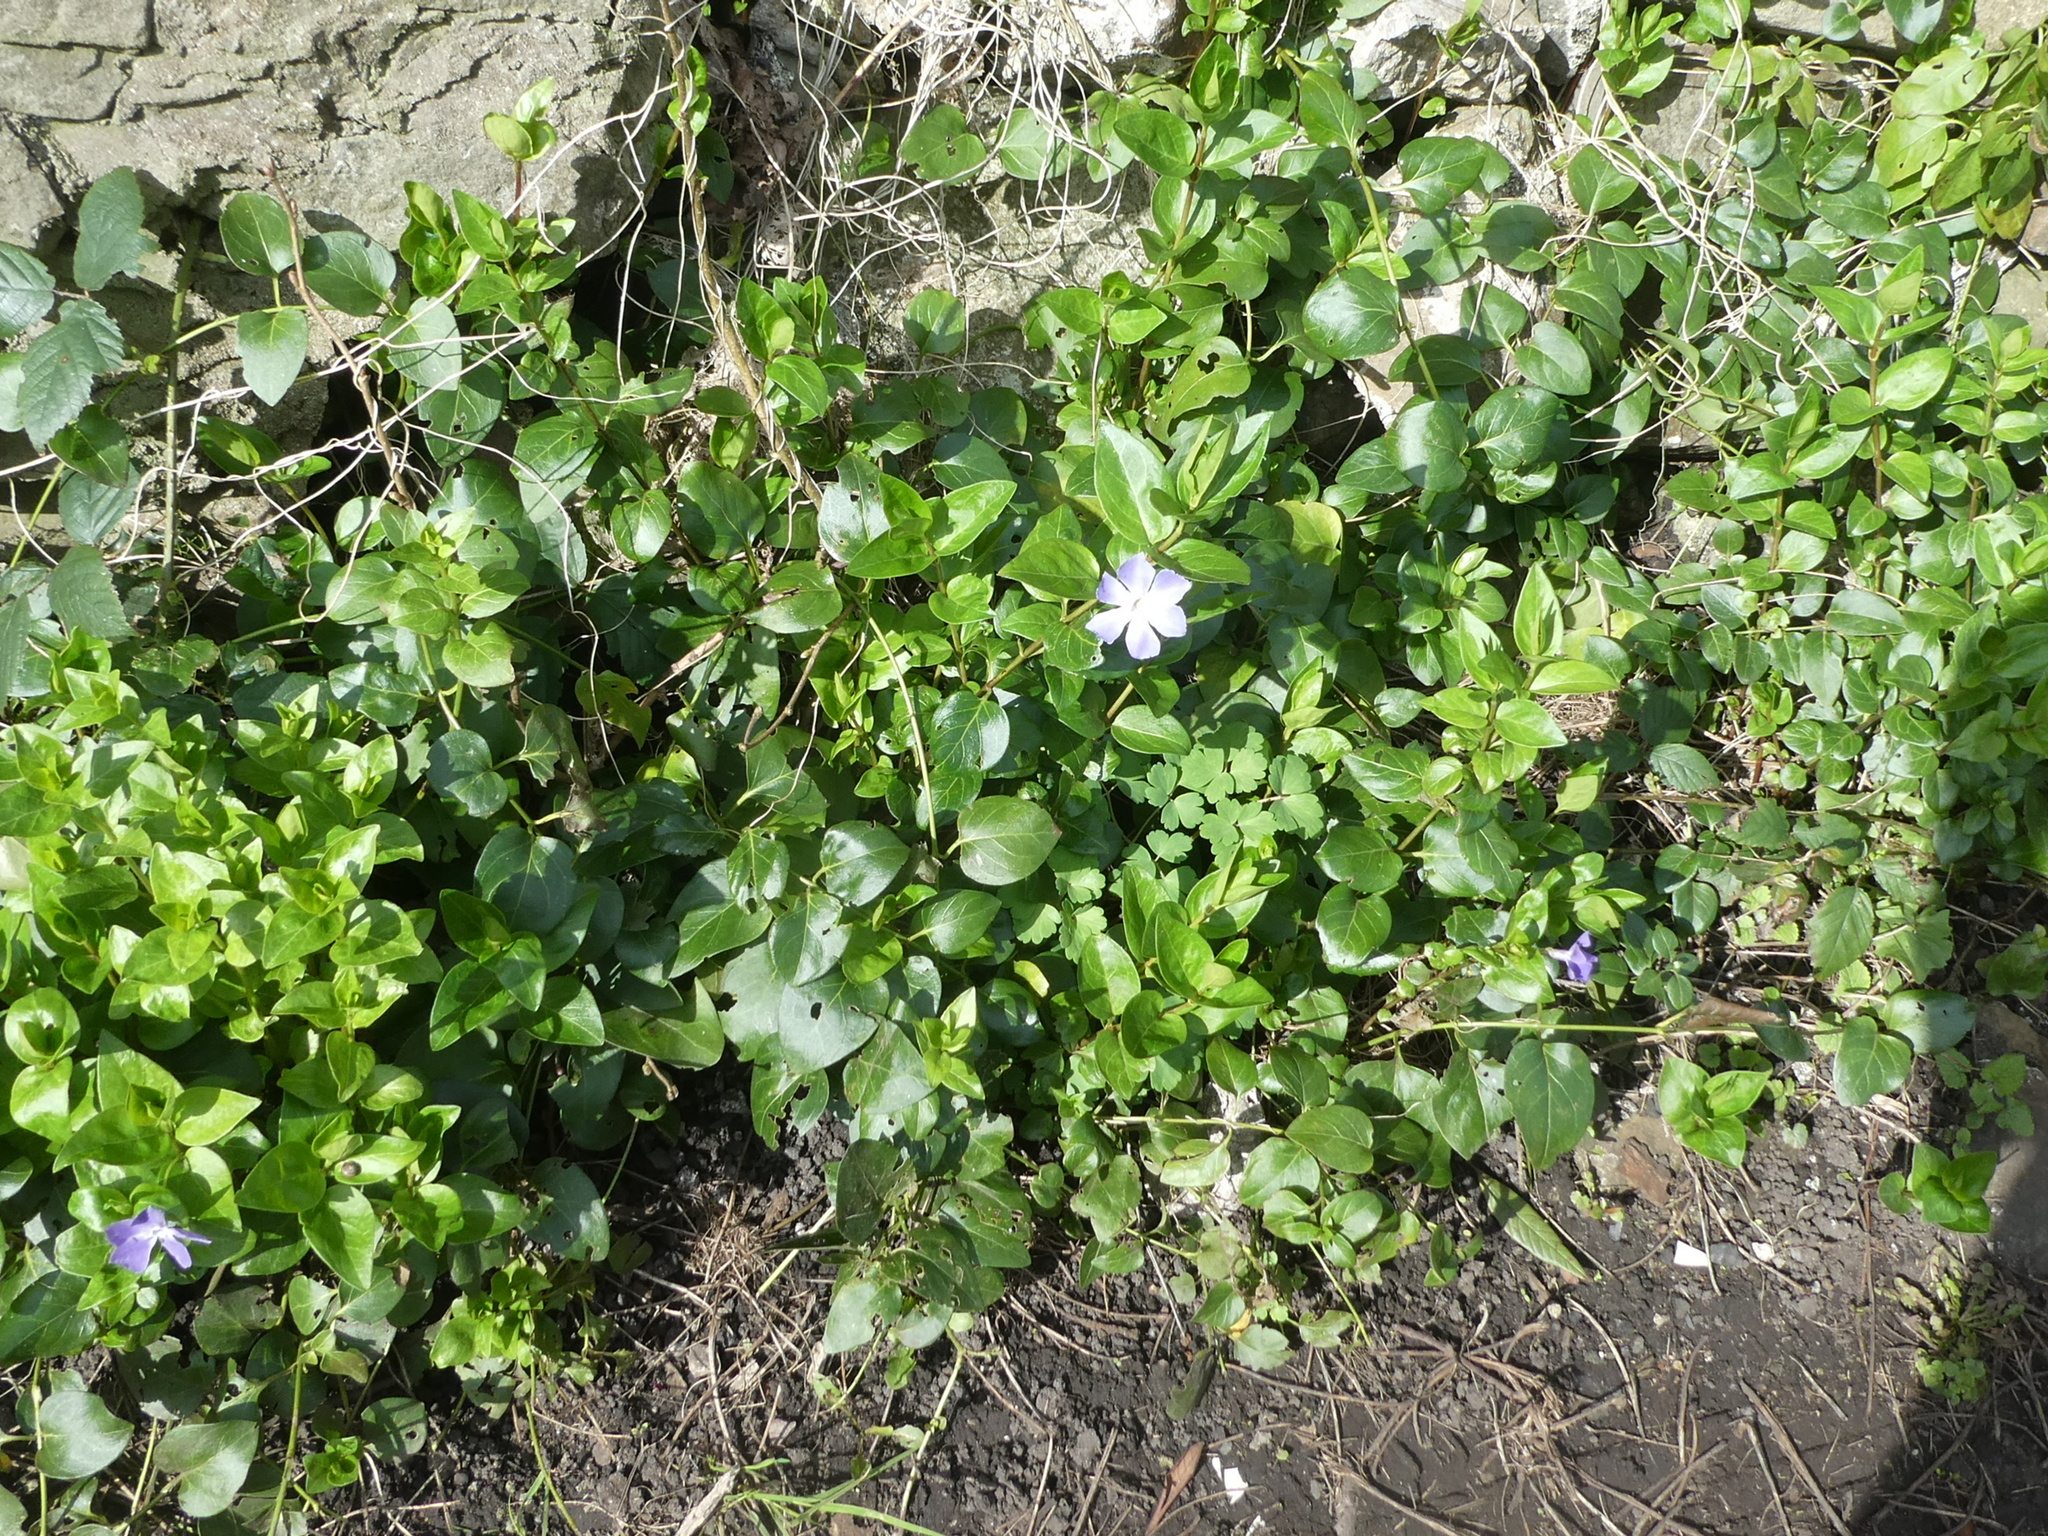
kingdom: Plantae
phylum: Tracheophyta
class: Magnoliopsida
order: Gentianales
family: Apocynaceae
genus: Vinca
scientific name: Vinca major
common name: Greater periwinkle
